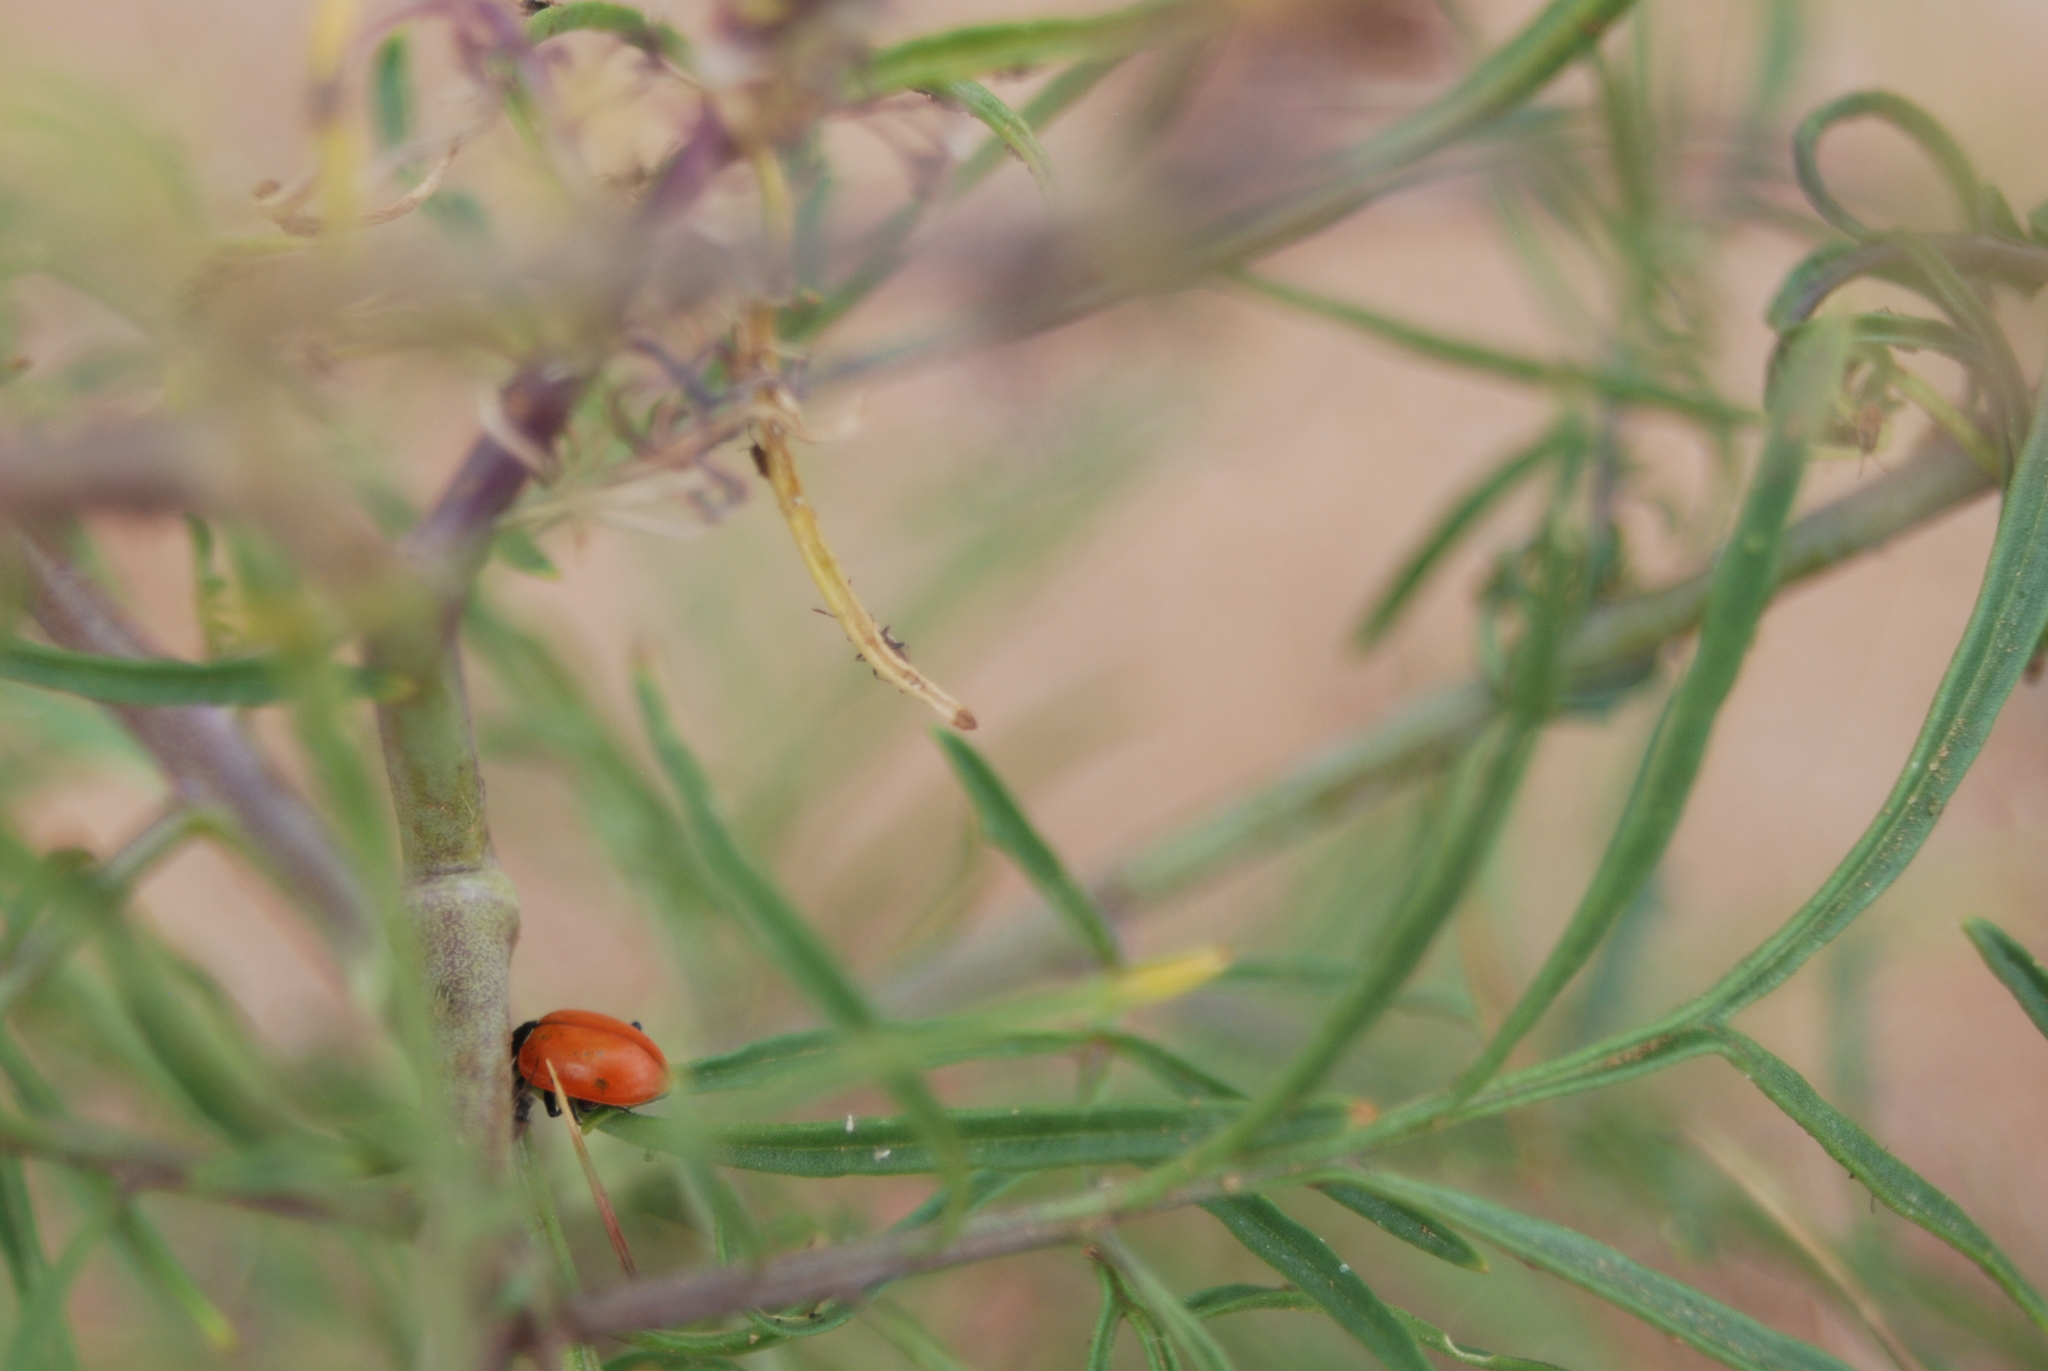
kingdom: Animalia
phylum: Arthropoda
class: Insecta
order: Coleoptera
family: Coccinellidae
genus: Hippodamia
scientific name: Hippodamia convergens
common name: Convergent lady beetle
